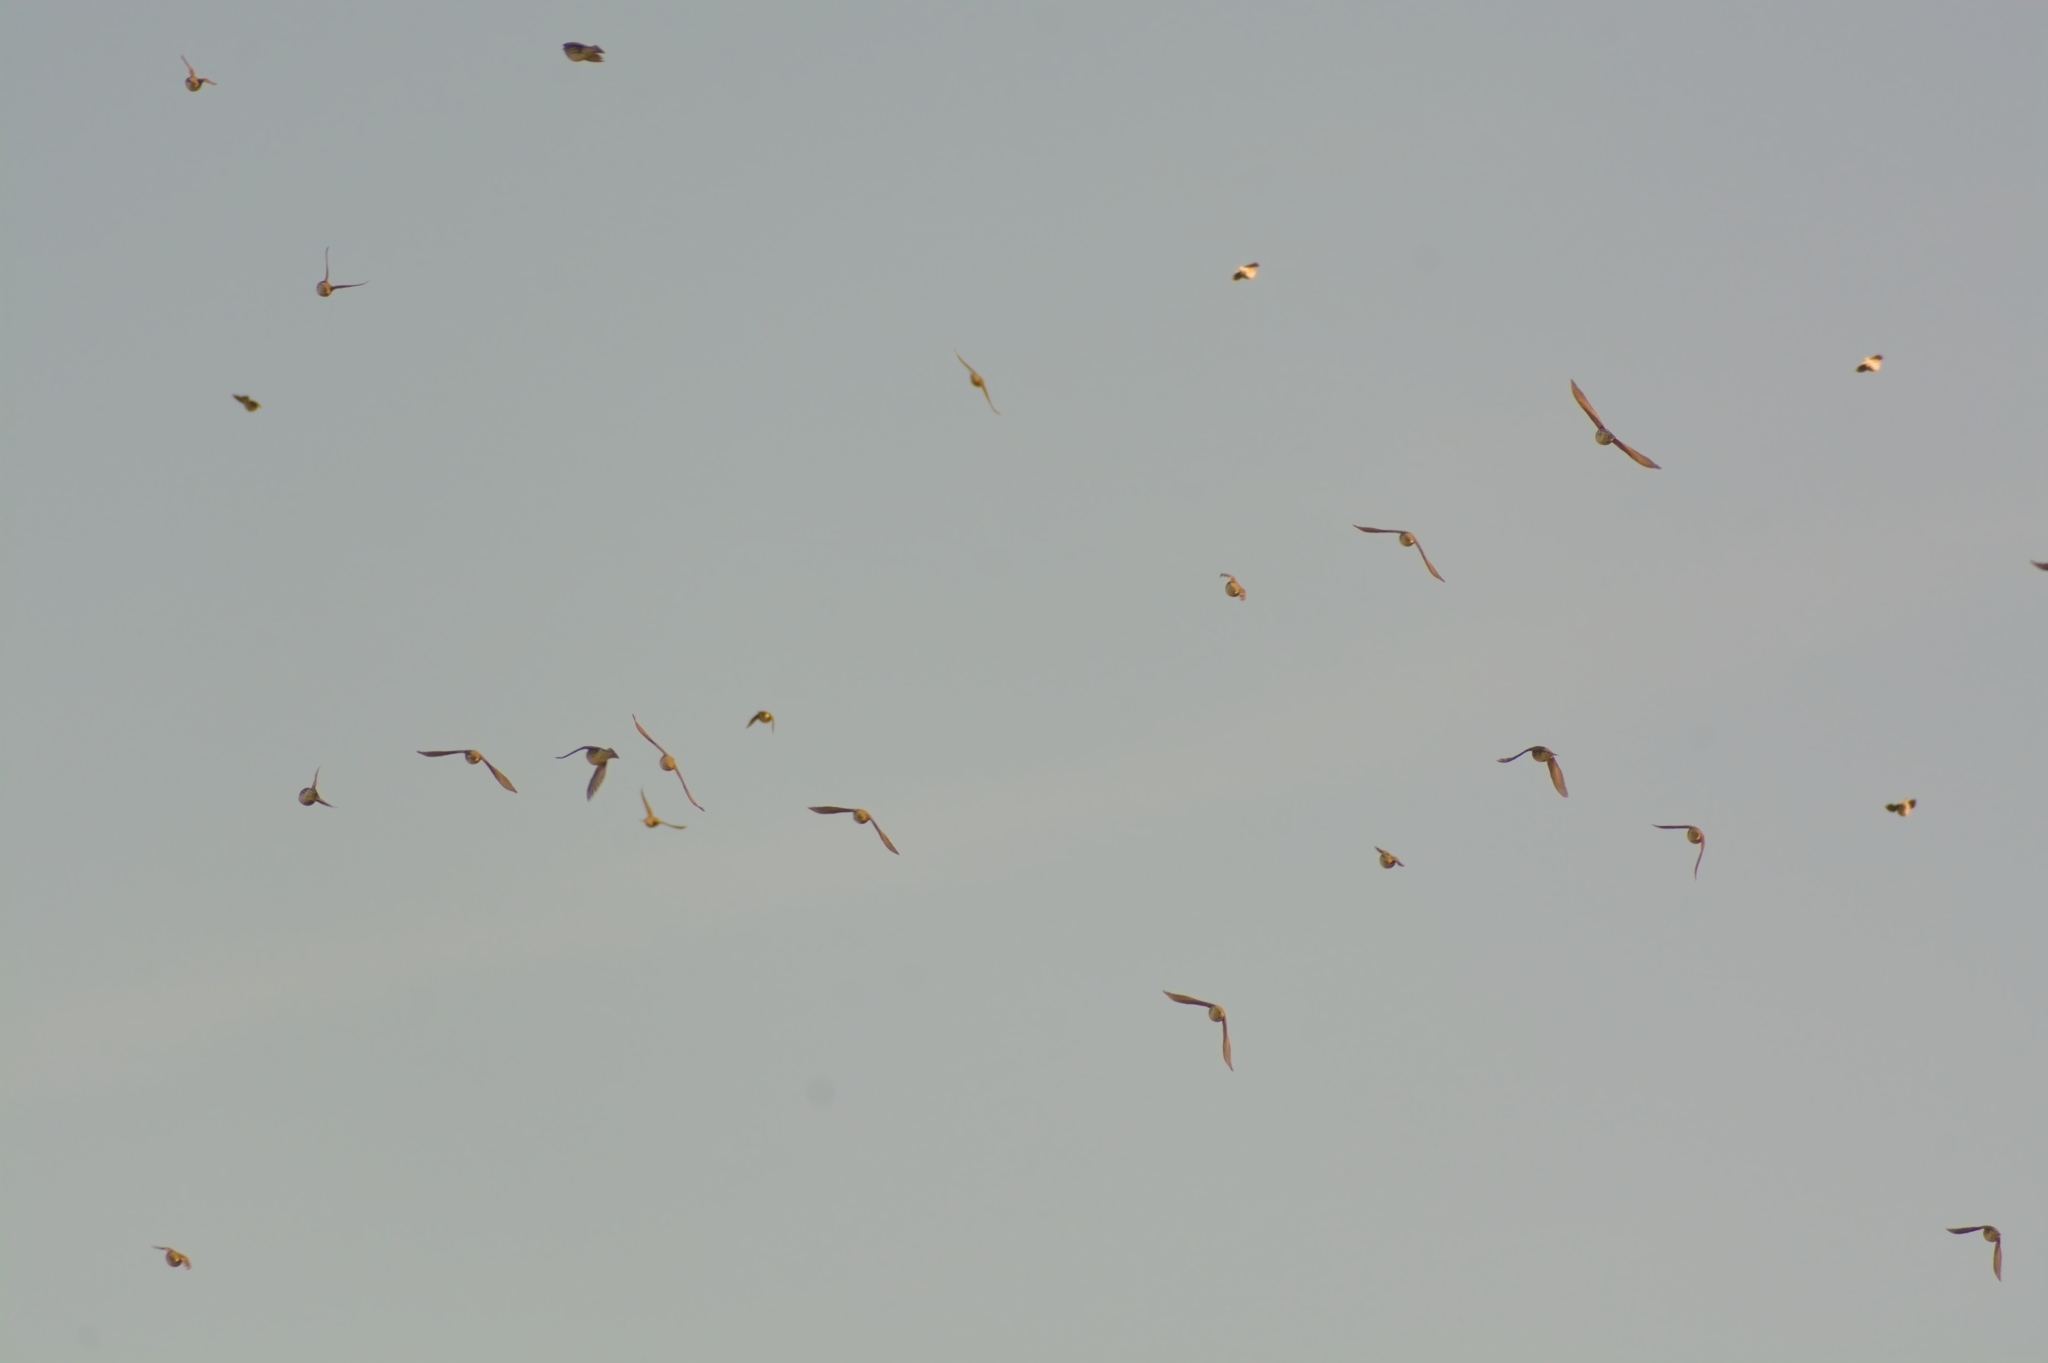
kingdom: Animalia
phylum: Chordata
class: Aves
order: Passeriformes
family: Turdidae
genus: Turdus
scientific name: Turdus iliacus
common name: Redwing
